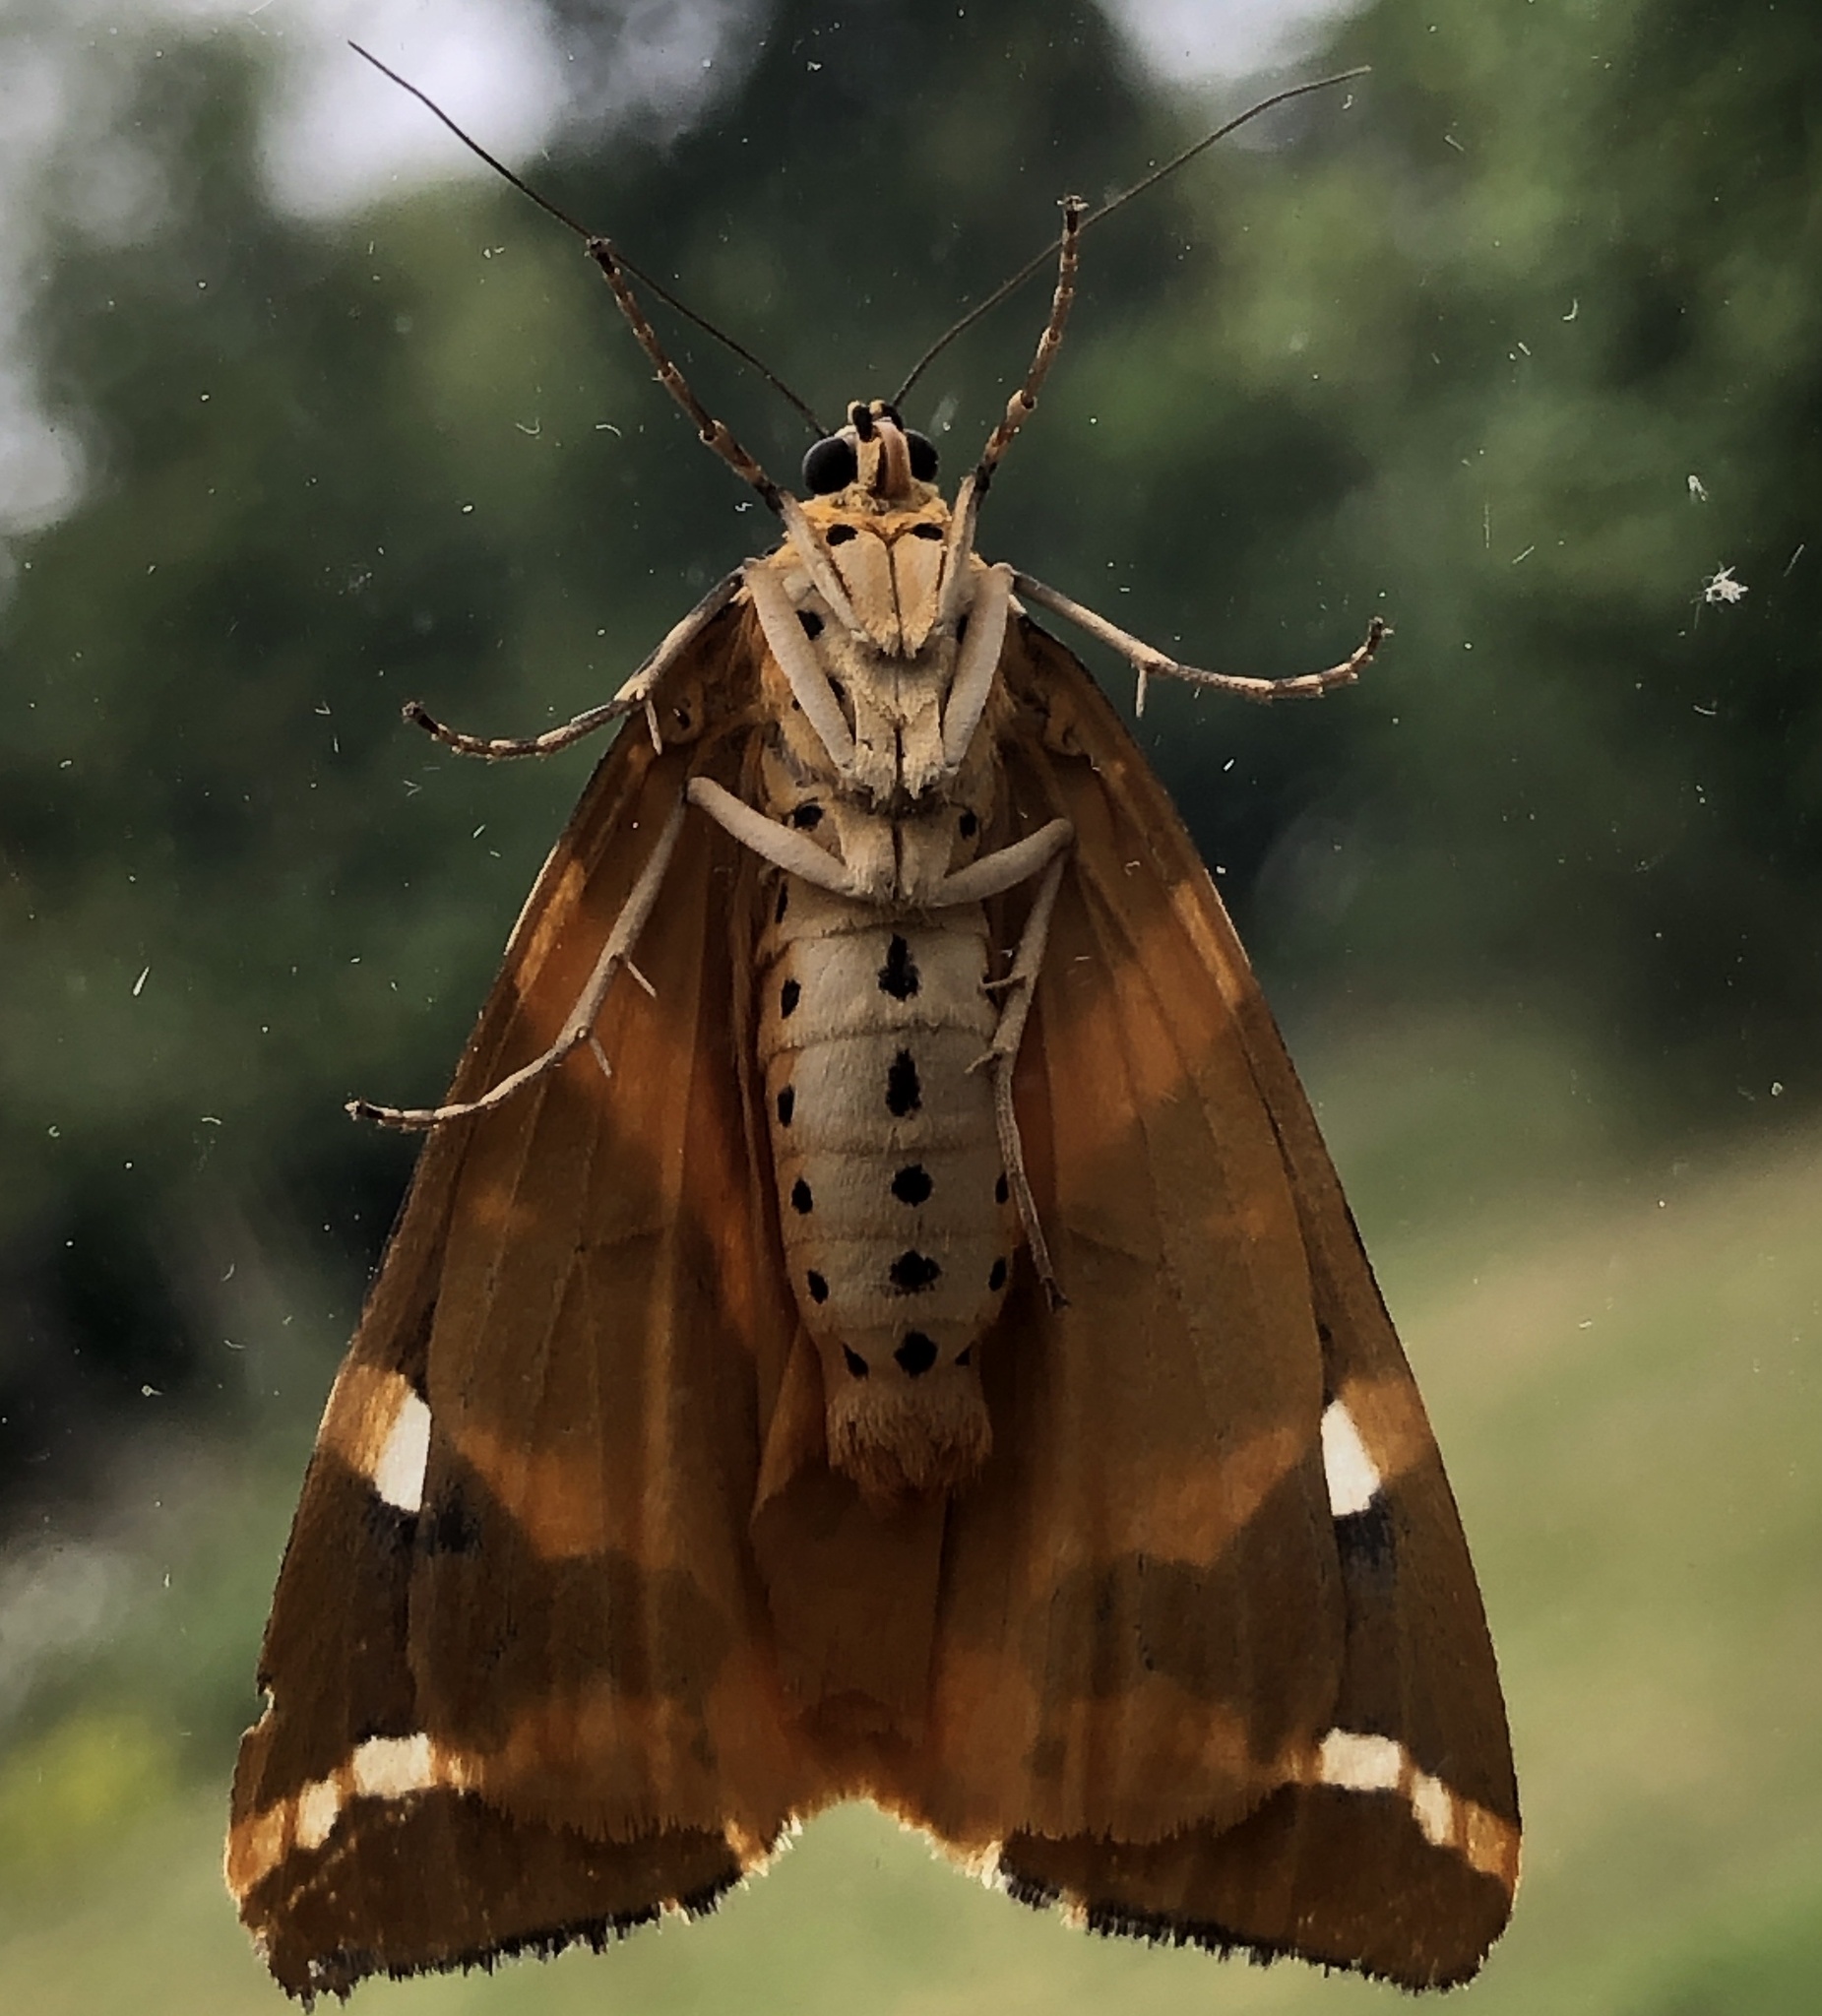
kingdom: Animalia
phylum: Arthropoda
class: Insecta
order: Lepidoptera
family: Erebidae
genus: Euplagia
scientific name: Euplagia quadripunctaria
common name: Jersey tiger
